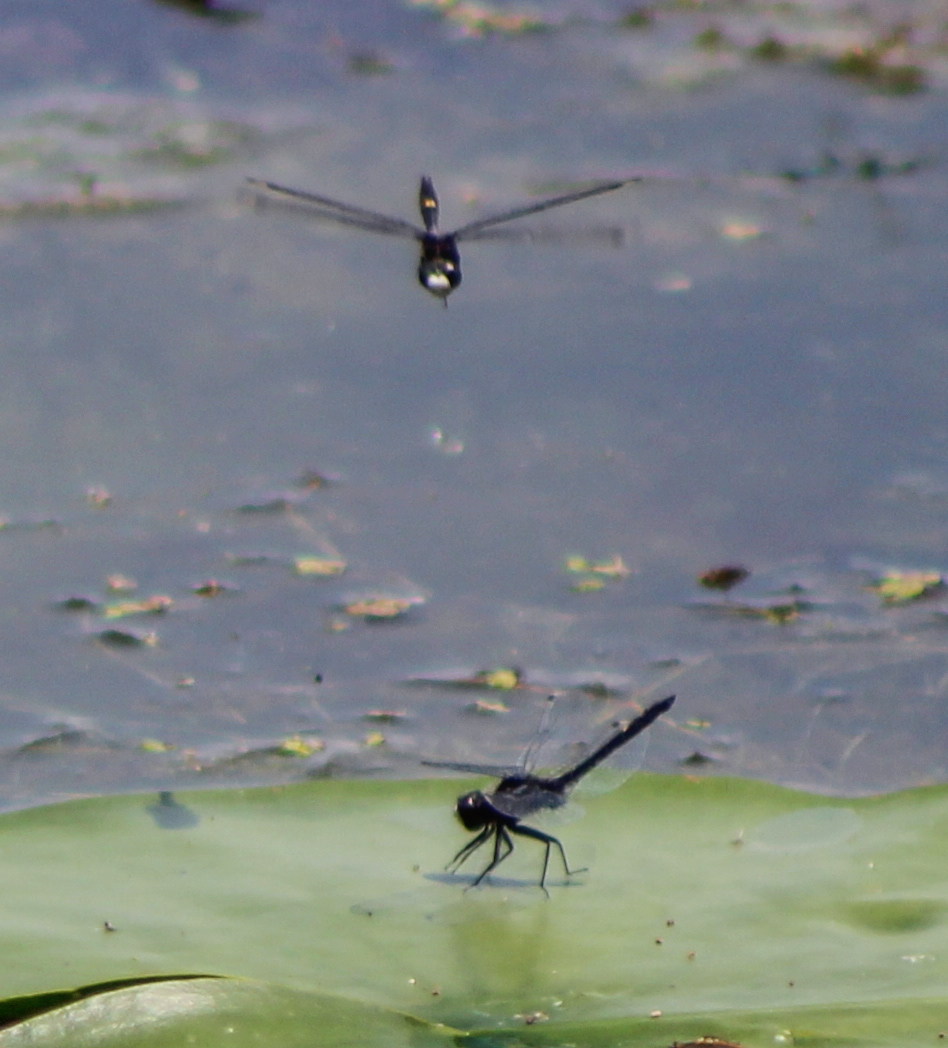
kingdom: Animalia
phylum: Arthropoda
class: Insecta
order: Odonata
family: Libellulidae
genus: Leucorrhinia
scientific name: Leucorrhinia intacta
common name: Dot-tailed whiteface
